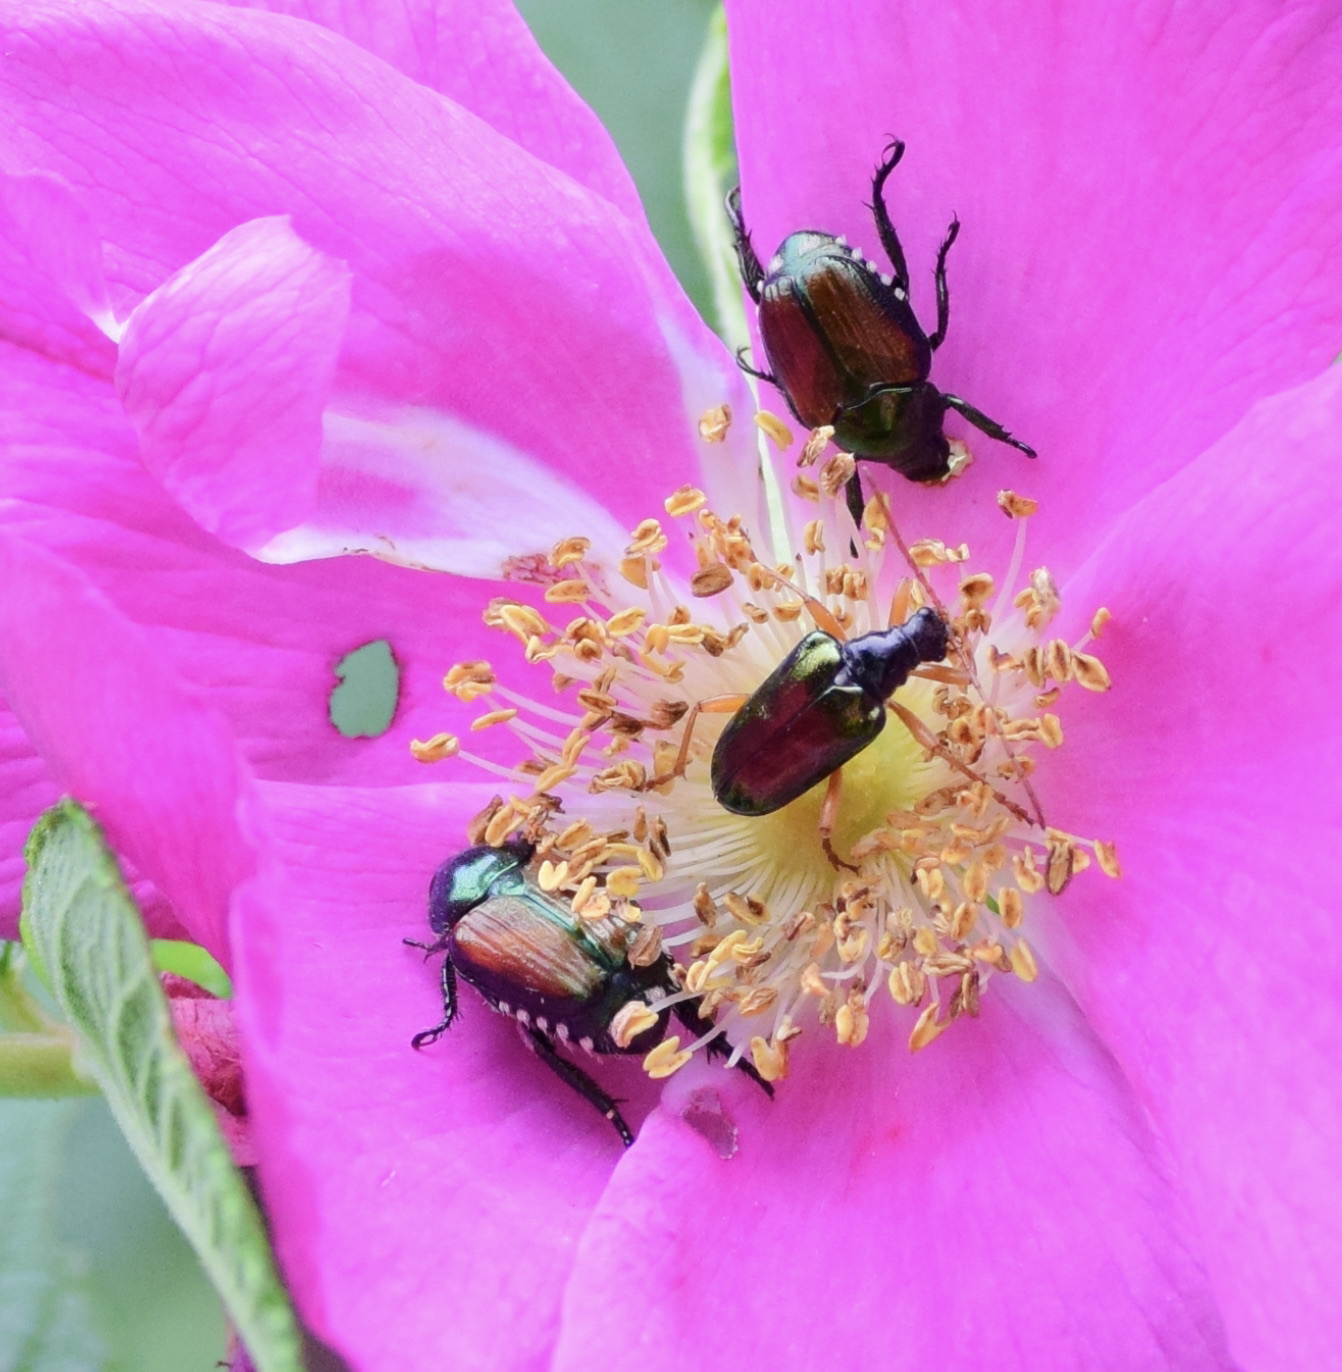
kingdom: Animalia
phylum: Arthropoda
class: Insecta
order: Coleoptera
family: Scarabaeidae
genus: Popillia
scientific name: Popillia japonica
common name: Japanese beetle
